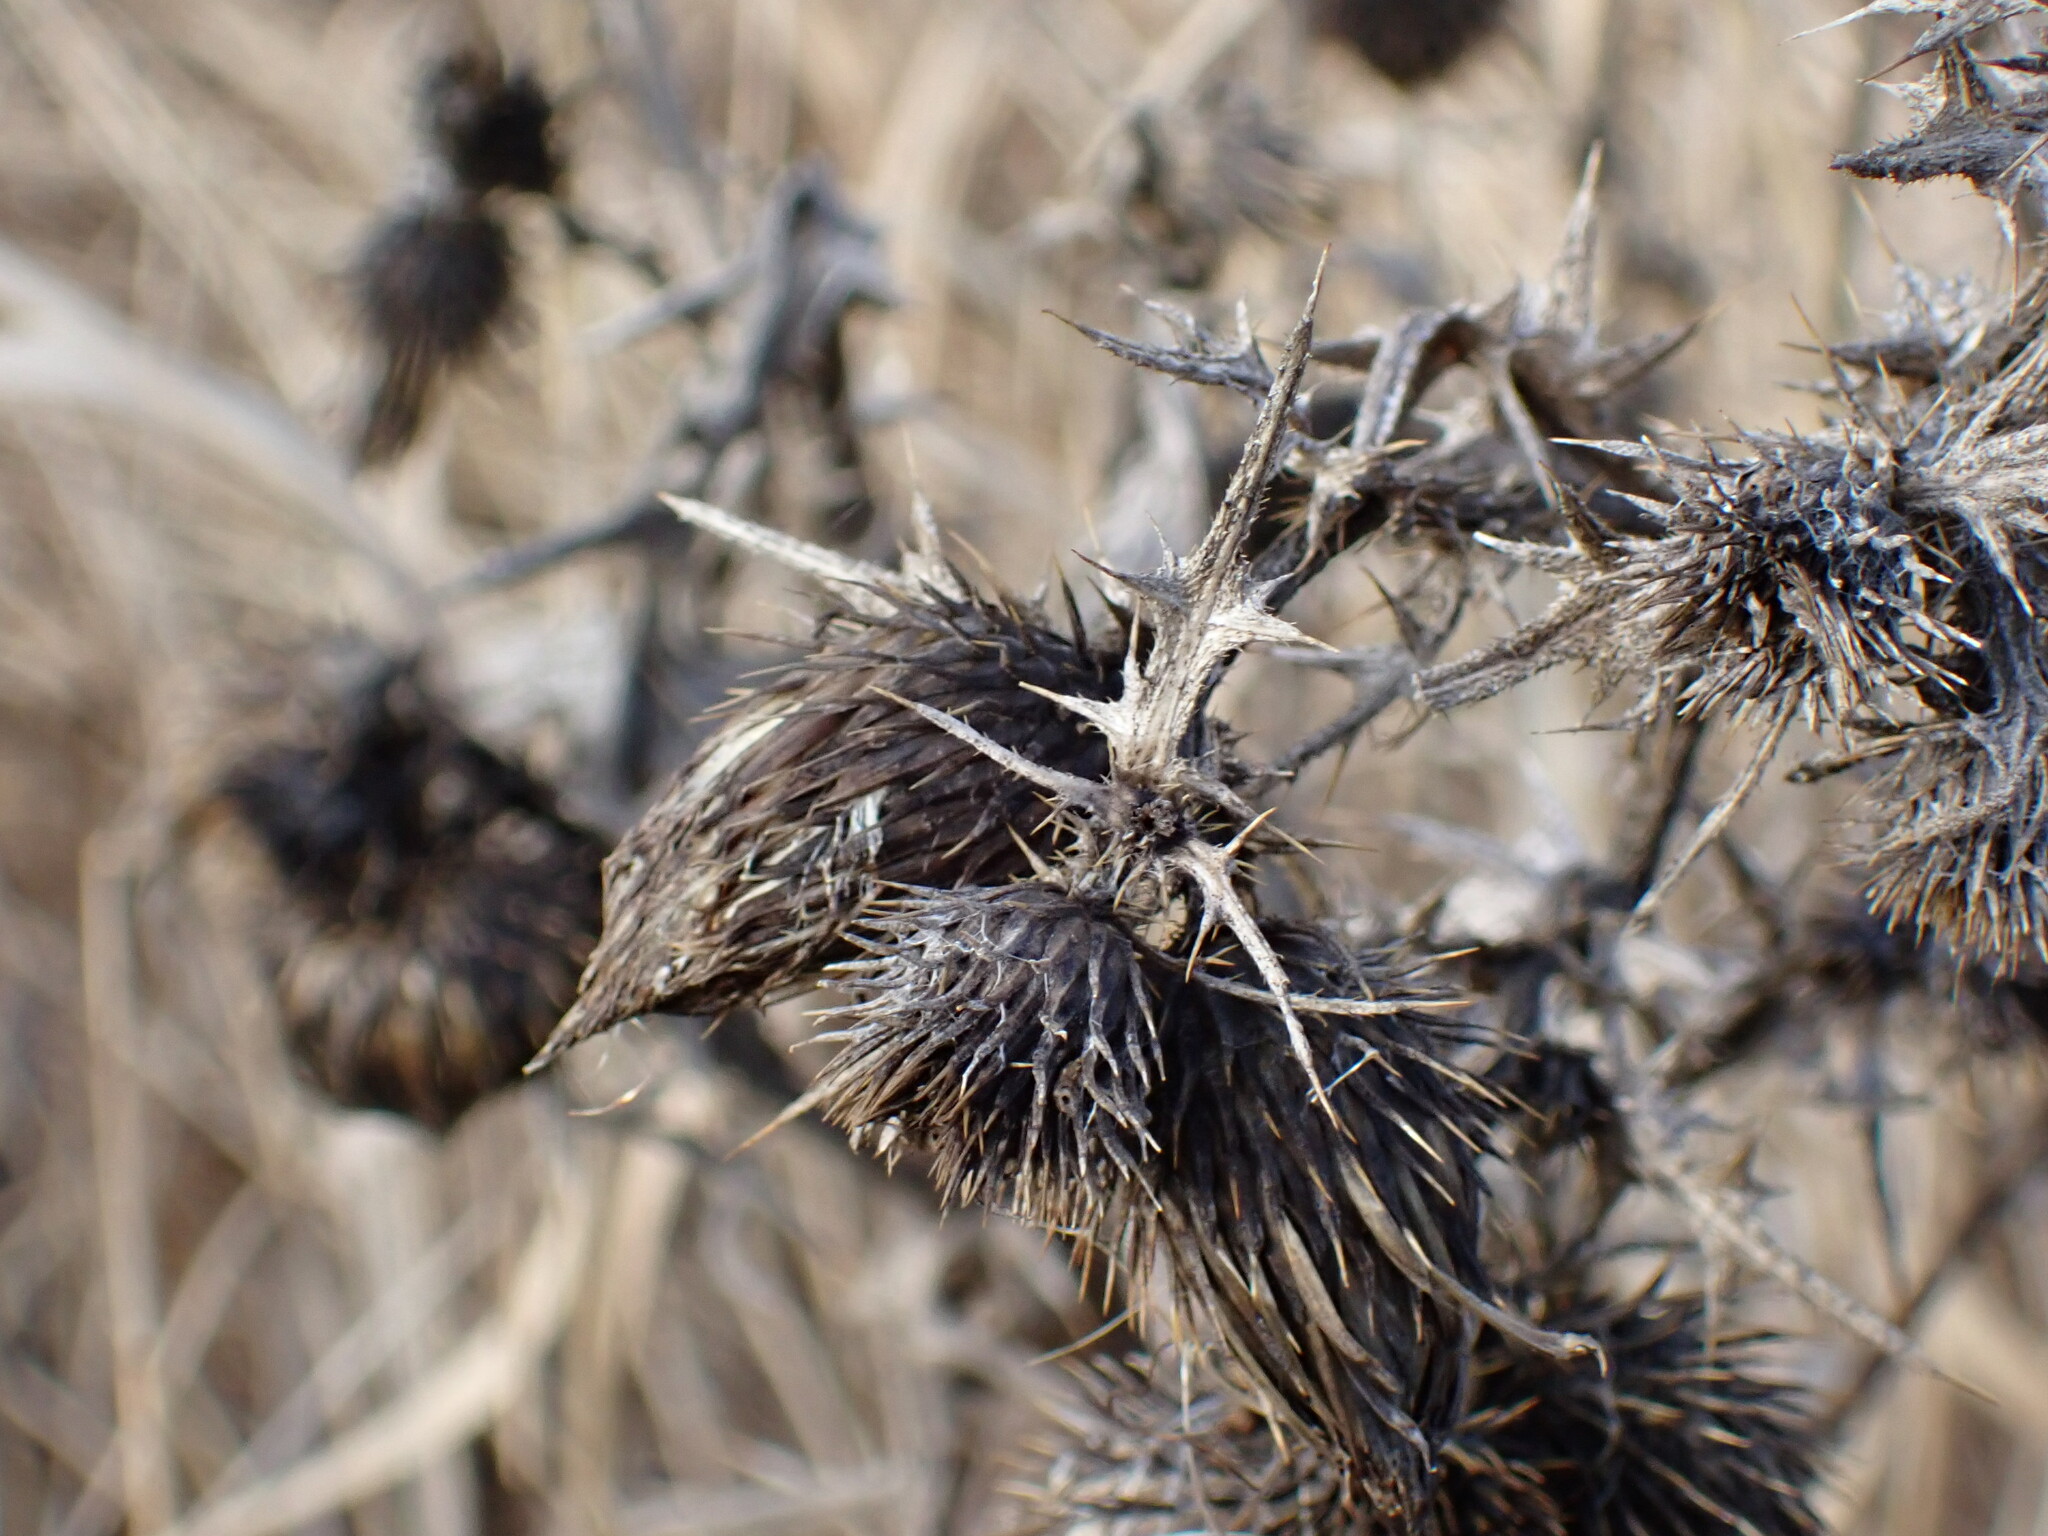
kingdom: Plantae
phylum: Tracheophyta
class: Magnoliopsida
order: Asterales
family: Asteraceae
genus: Cirsium
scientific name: Cirsium vulgare
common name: Bull thistle
